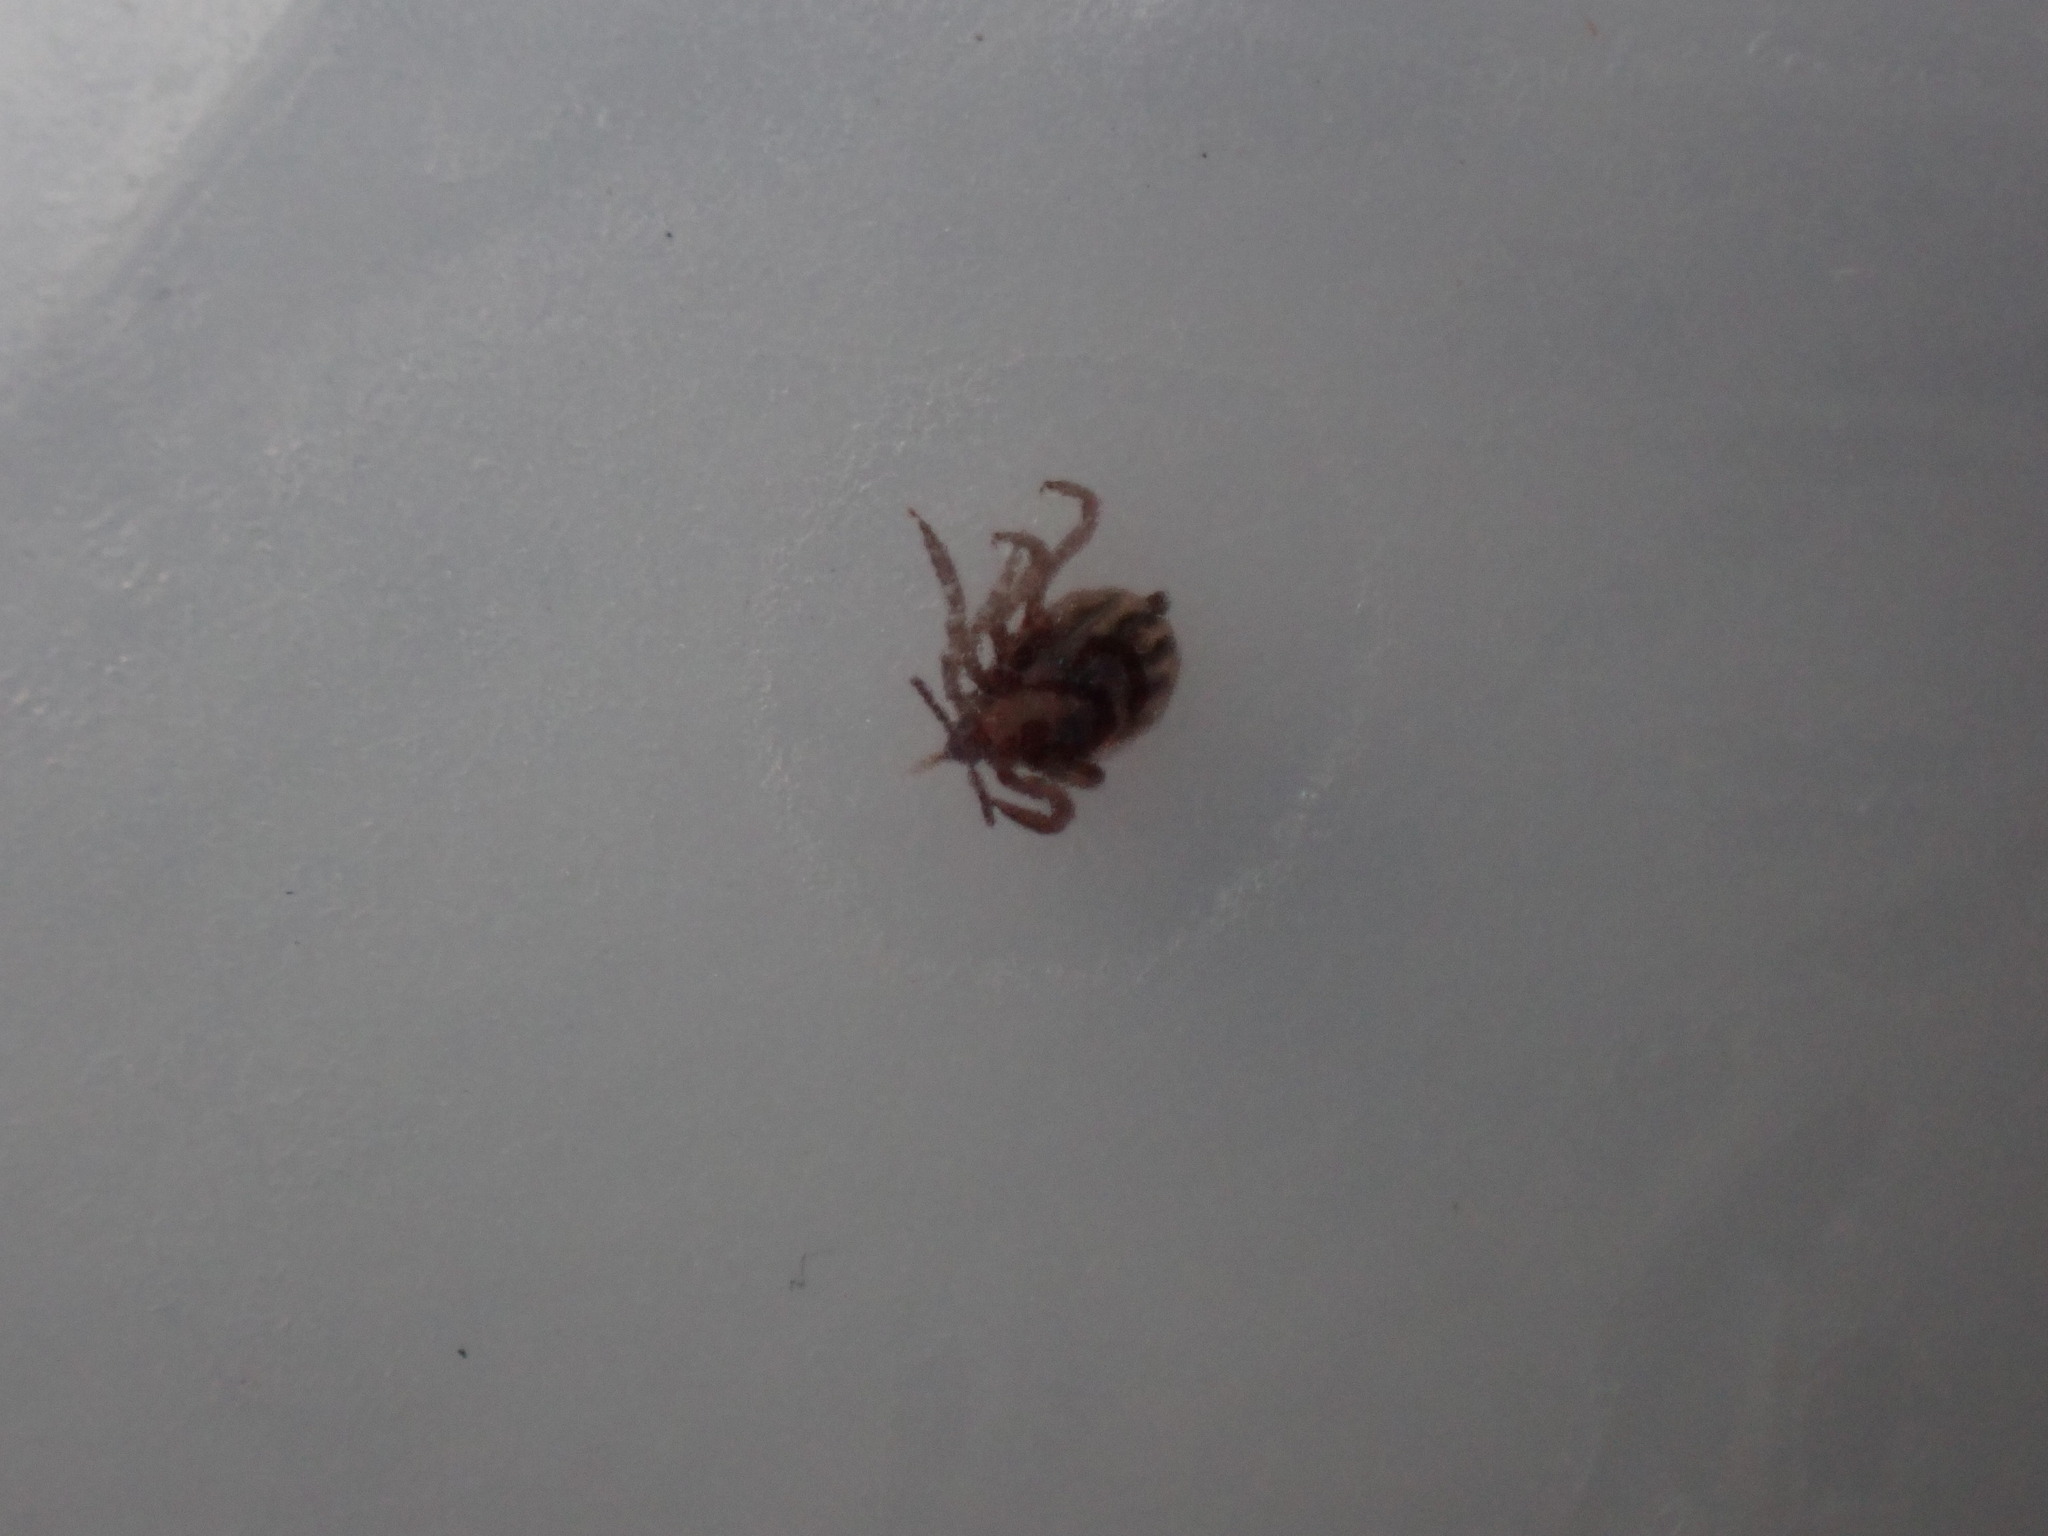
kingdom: Animalia
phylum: Arthropoda
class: Arachnida
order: Ixodida
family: Ixodidae
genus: Ixodes
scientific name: Ixodes scapularis
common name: Black legged tick
